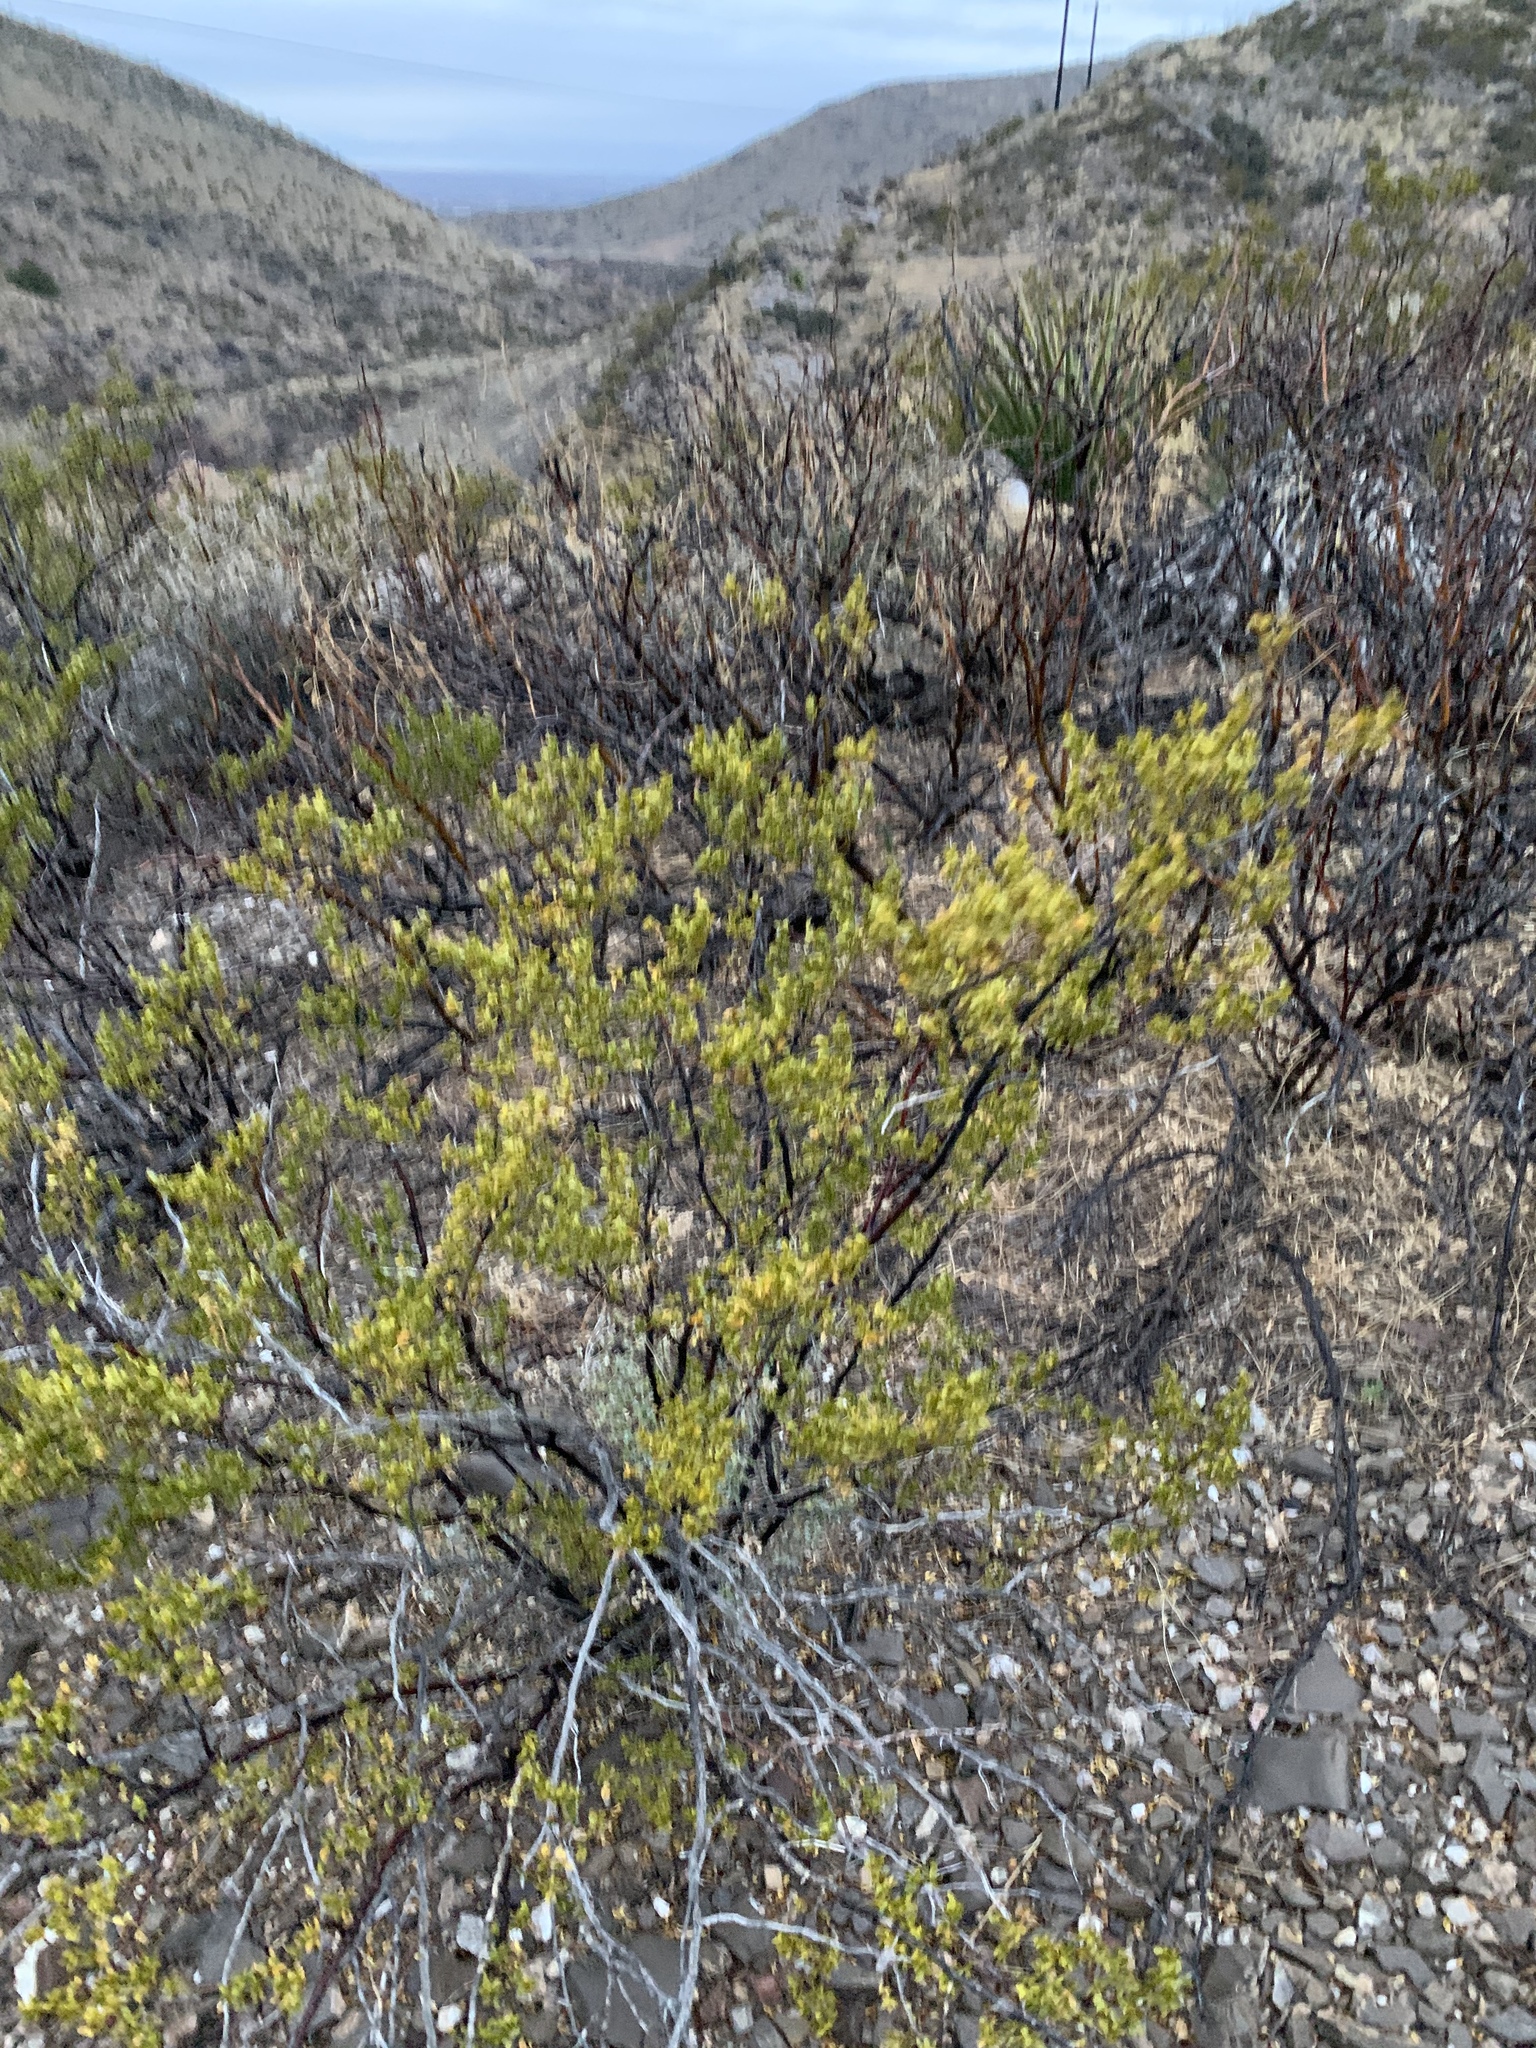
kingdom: Plantae
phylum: Tracheophyta
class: Magnoliopsida
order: Zygophyllales
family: Zygophyllaceae
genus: Larrea
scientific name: Larrea tridentata
